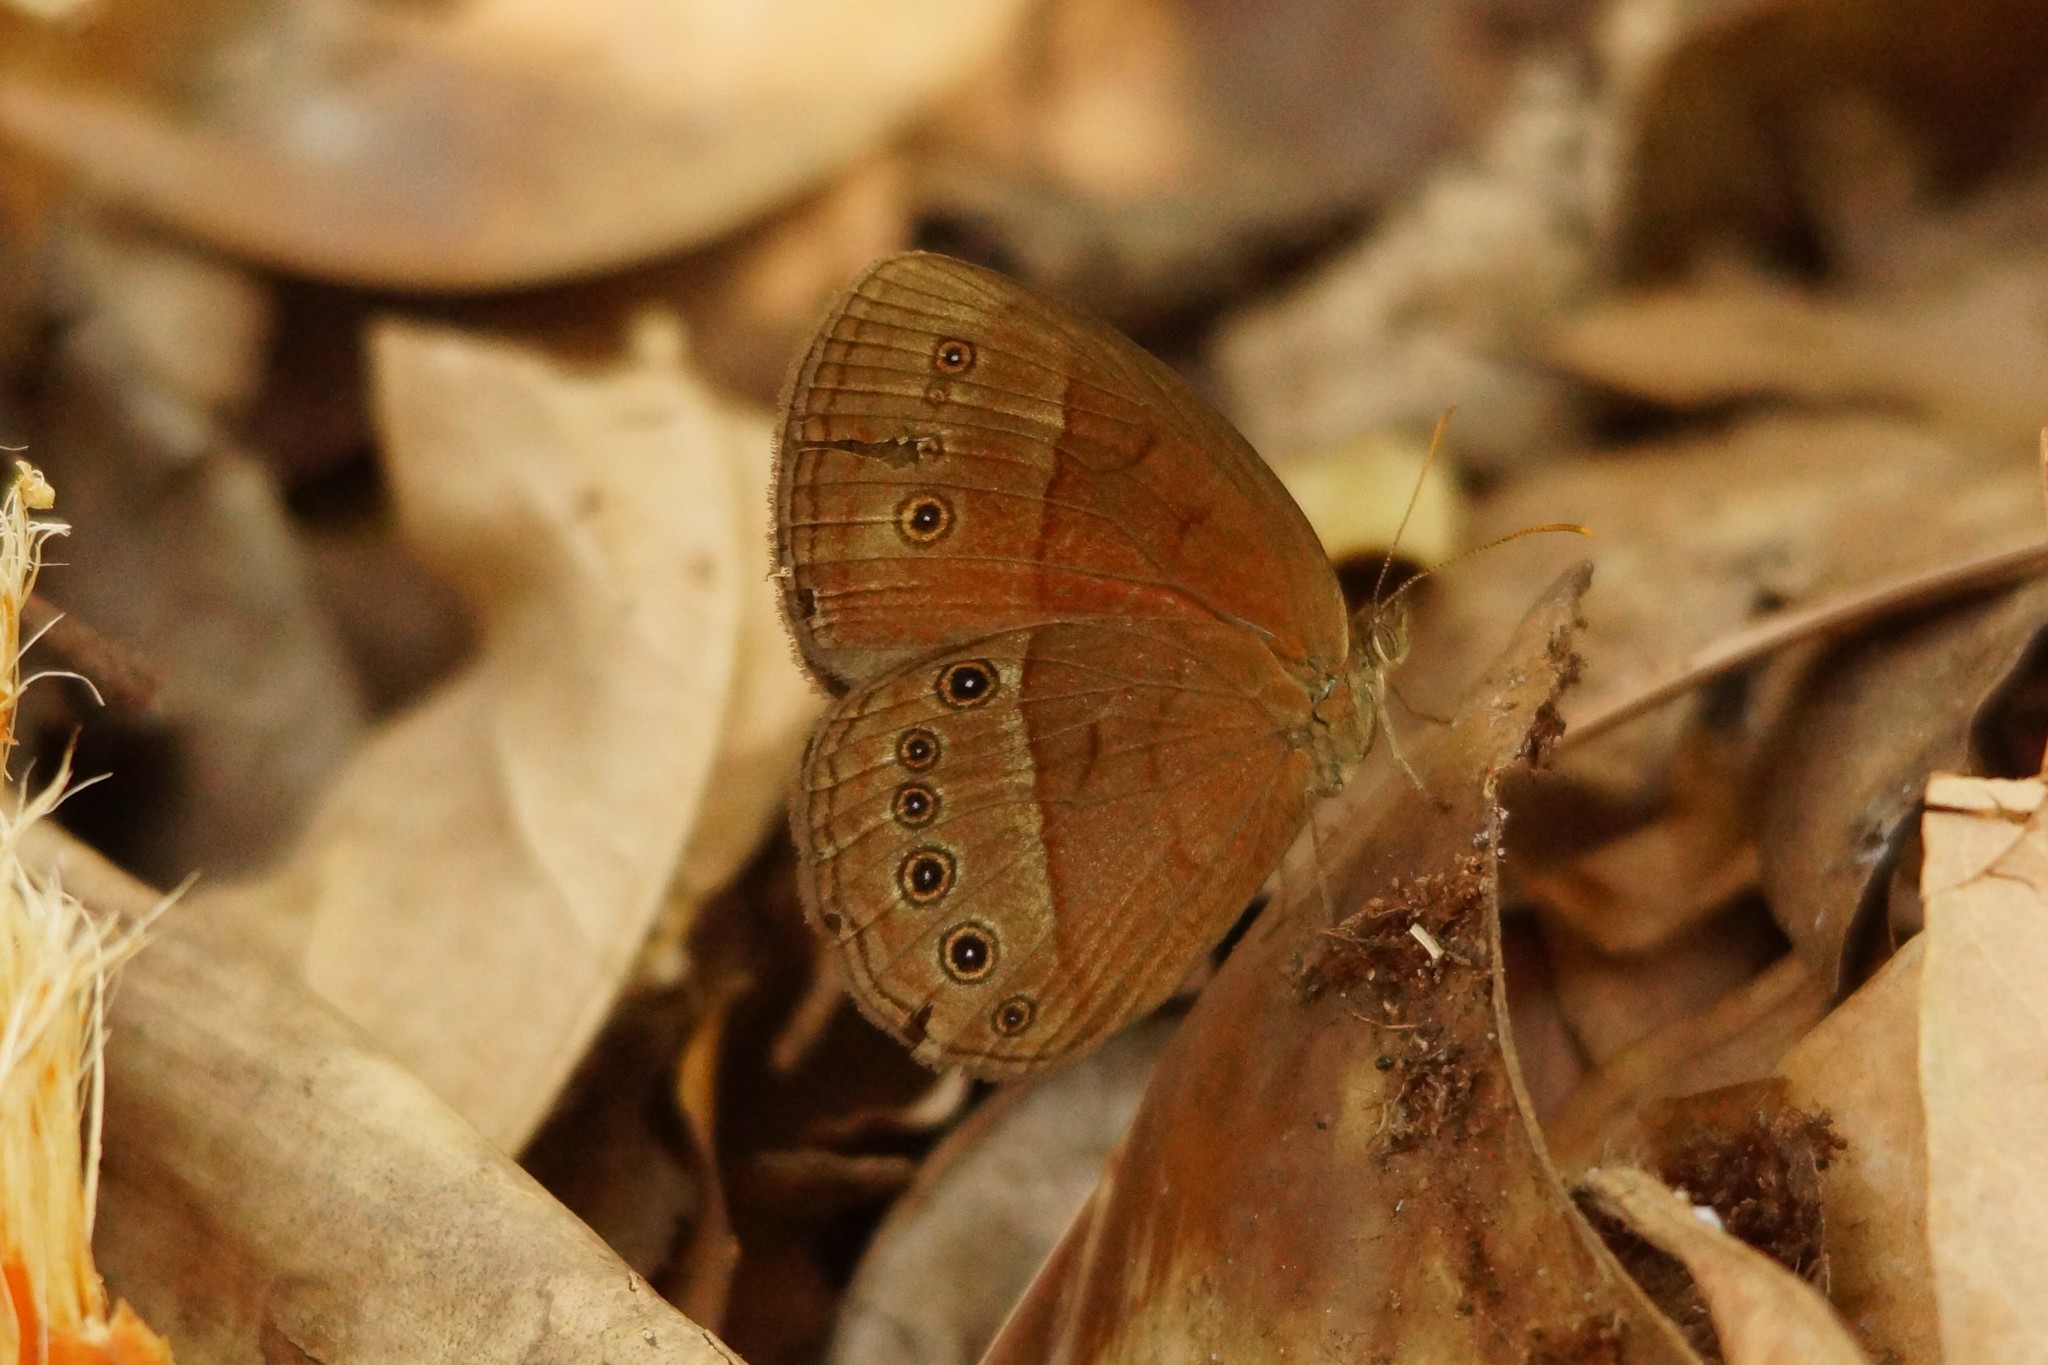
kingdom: Animalia
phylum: Arthropoda
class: Insecta
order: Lepidoptera
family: Nymphalidae
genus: Mycalesis
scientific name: Mycalesis sirius
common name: Cedar bushbrown
